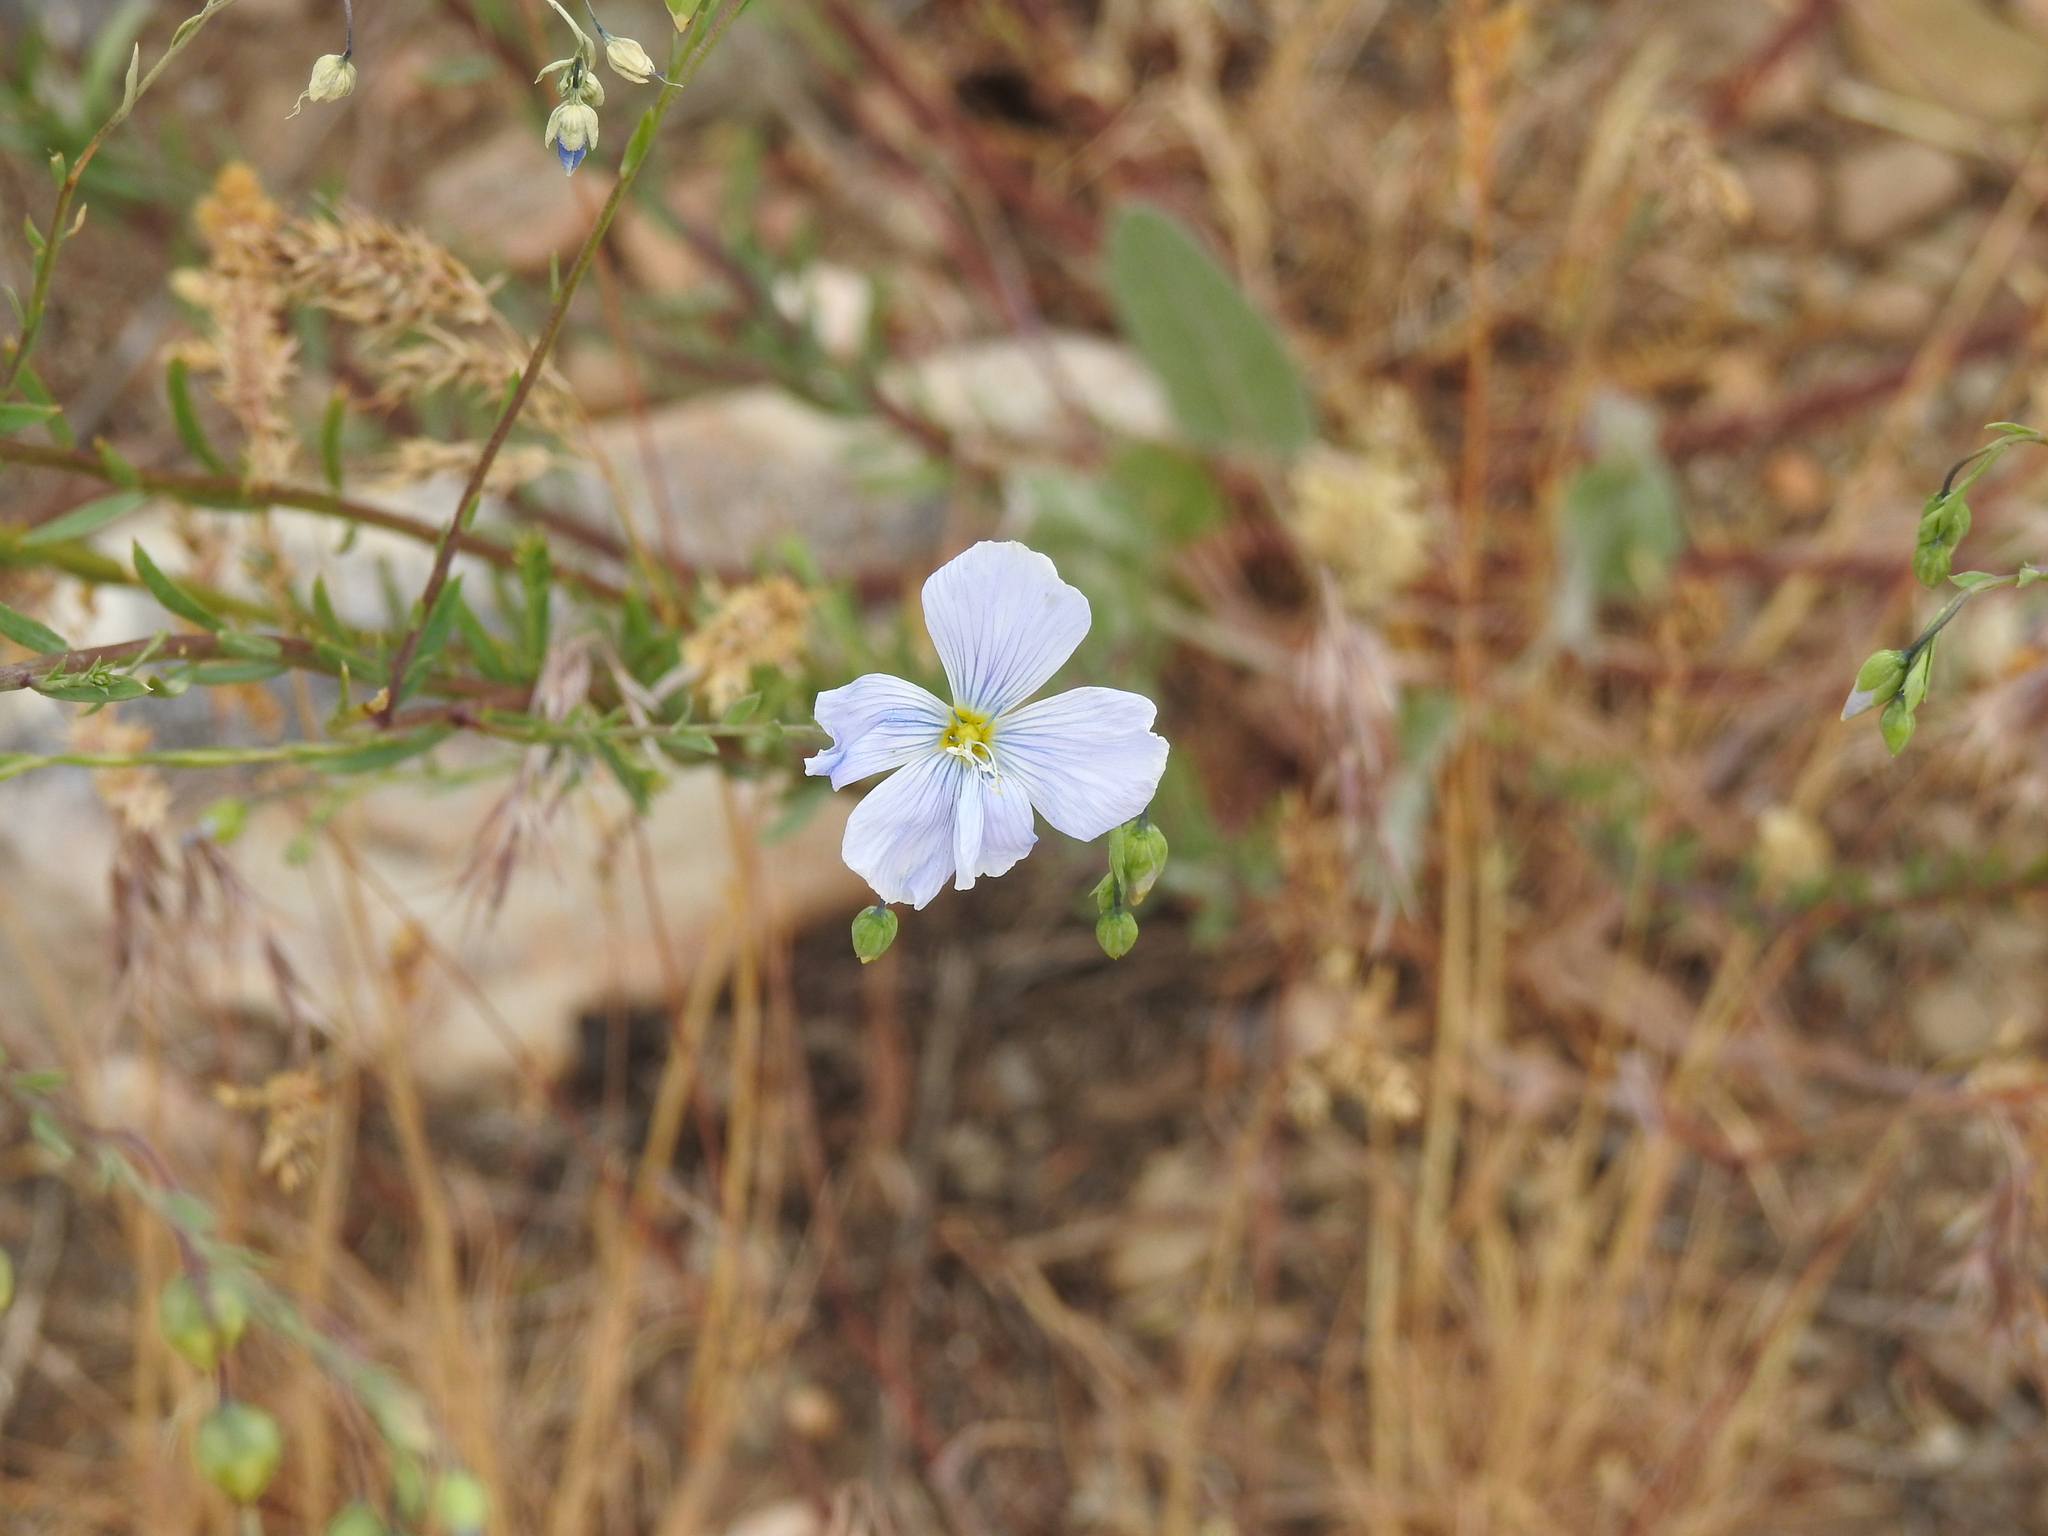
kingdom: Plantae
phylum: Tracheophyta
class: Magnoliopsida
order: Malpighiales
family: Linaceae
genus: Linum
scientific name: Linum lewisii
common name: Prairie flax
